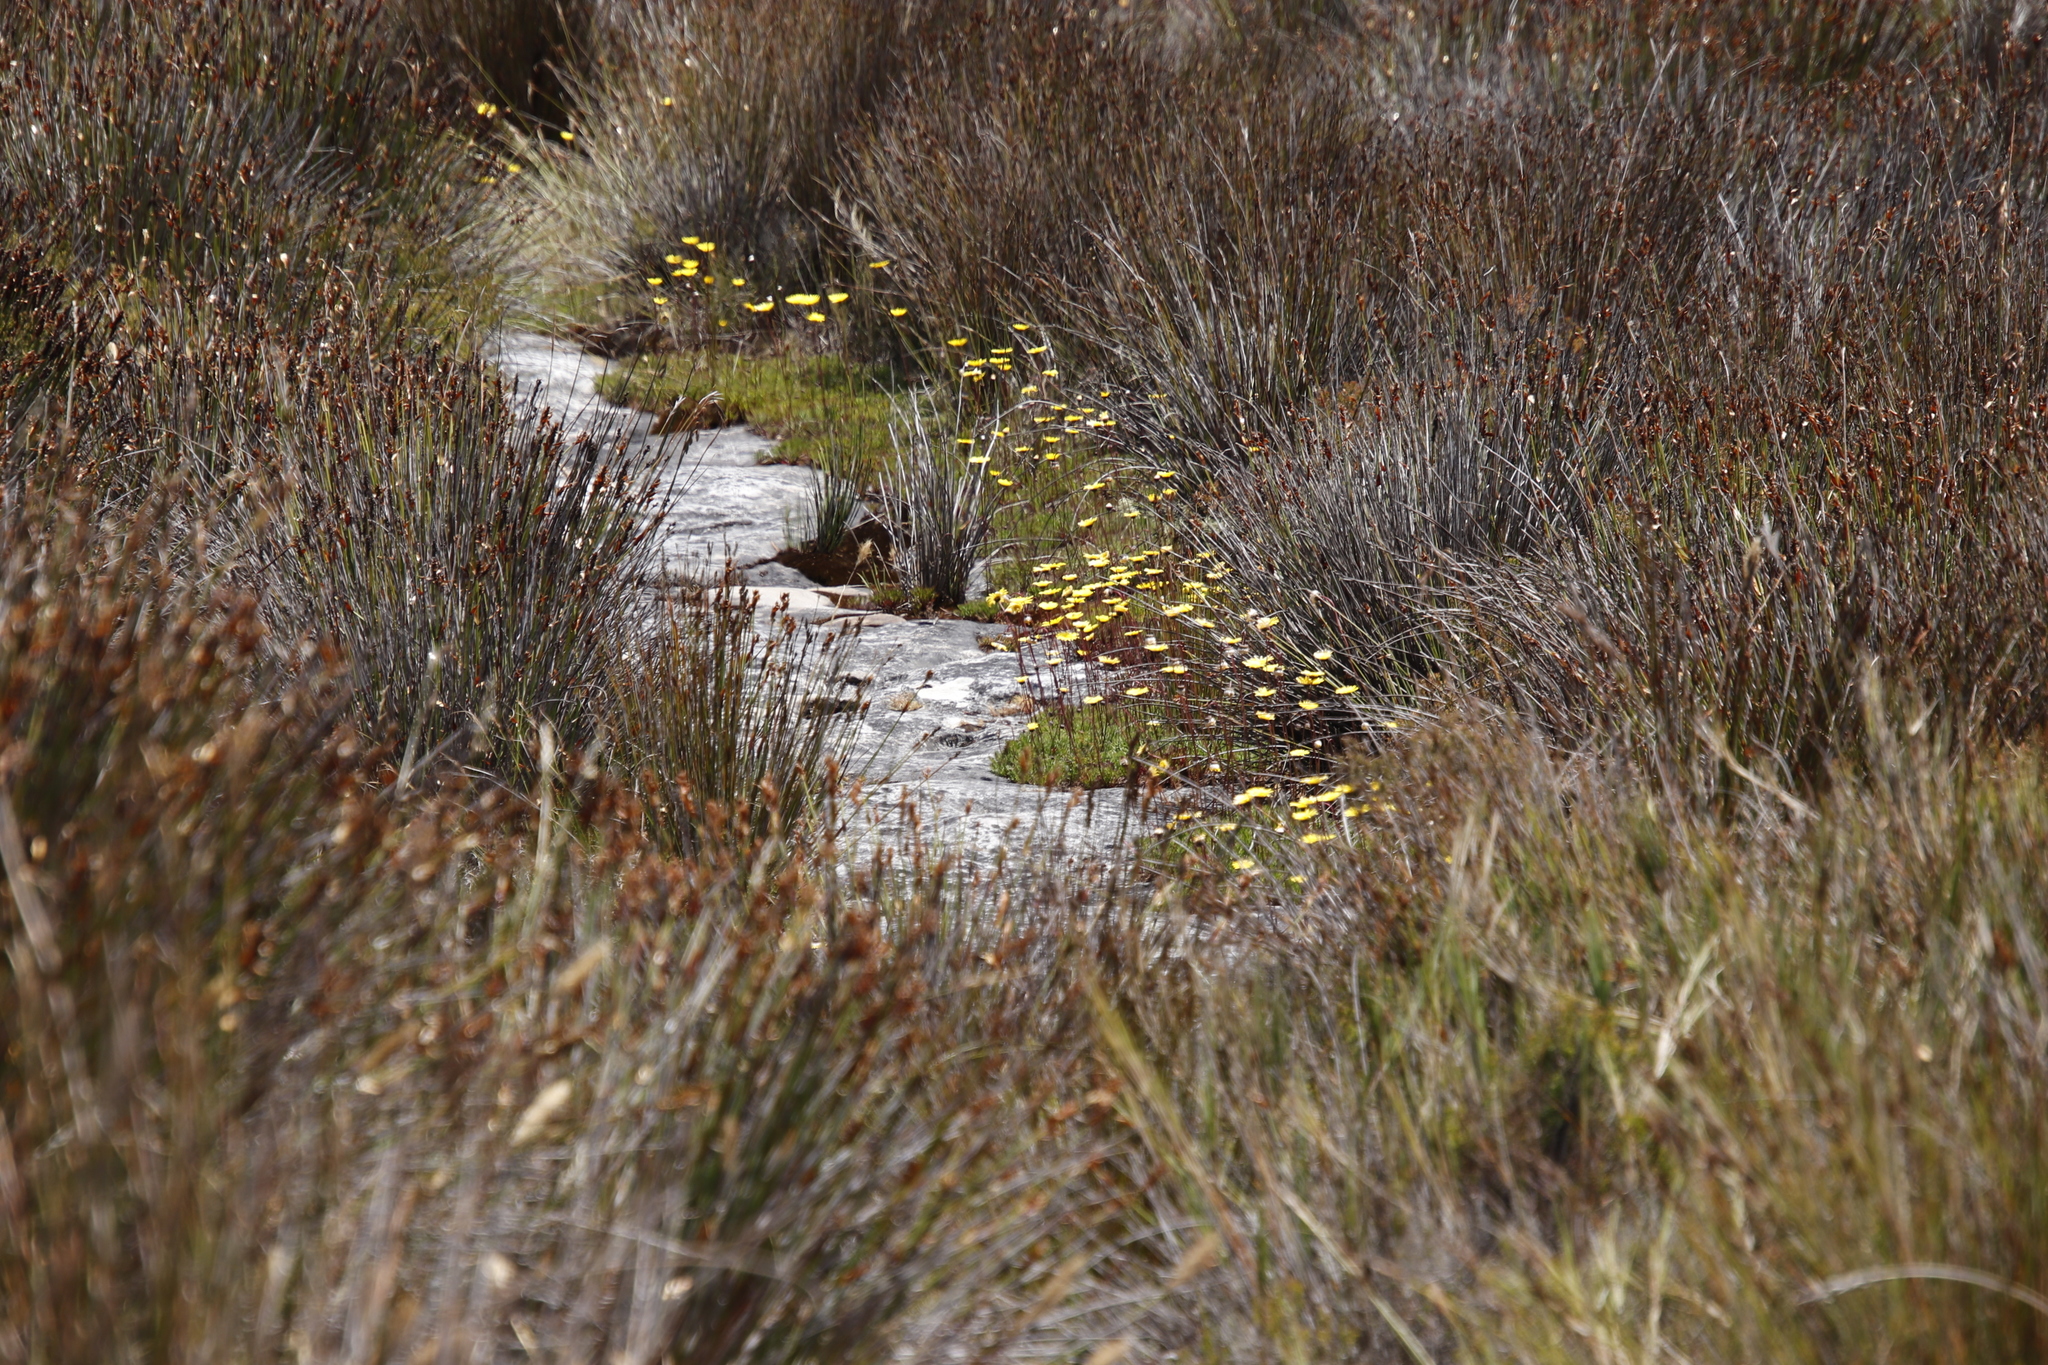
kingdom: Plantae
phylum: Tracheophyta
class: Magnoliopsida
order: Asterales
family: Asteraceae
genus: Ursinia
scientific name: Ursinia nudicaulis
